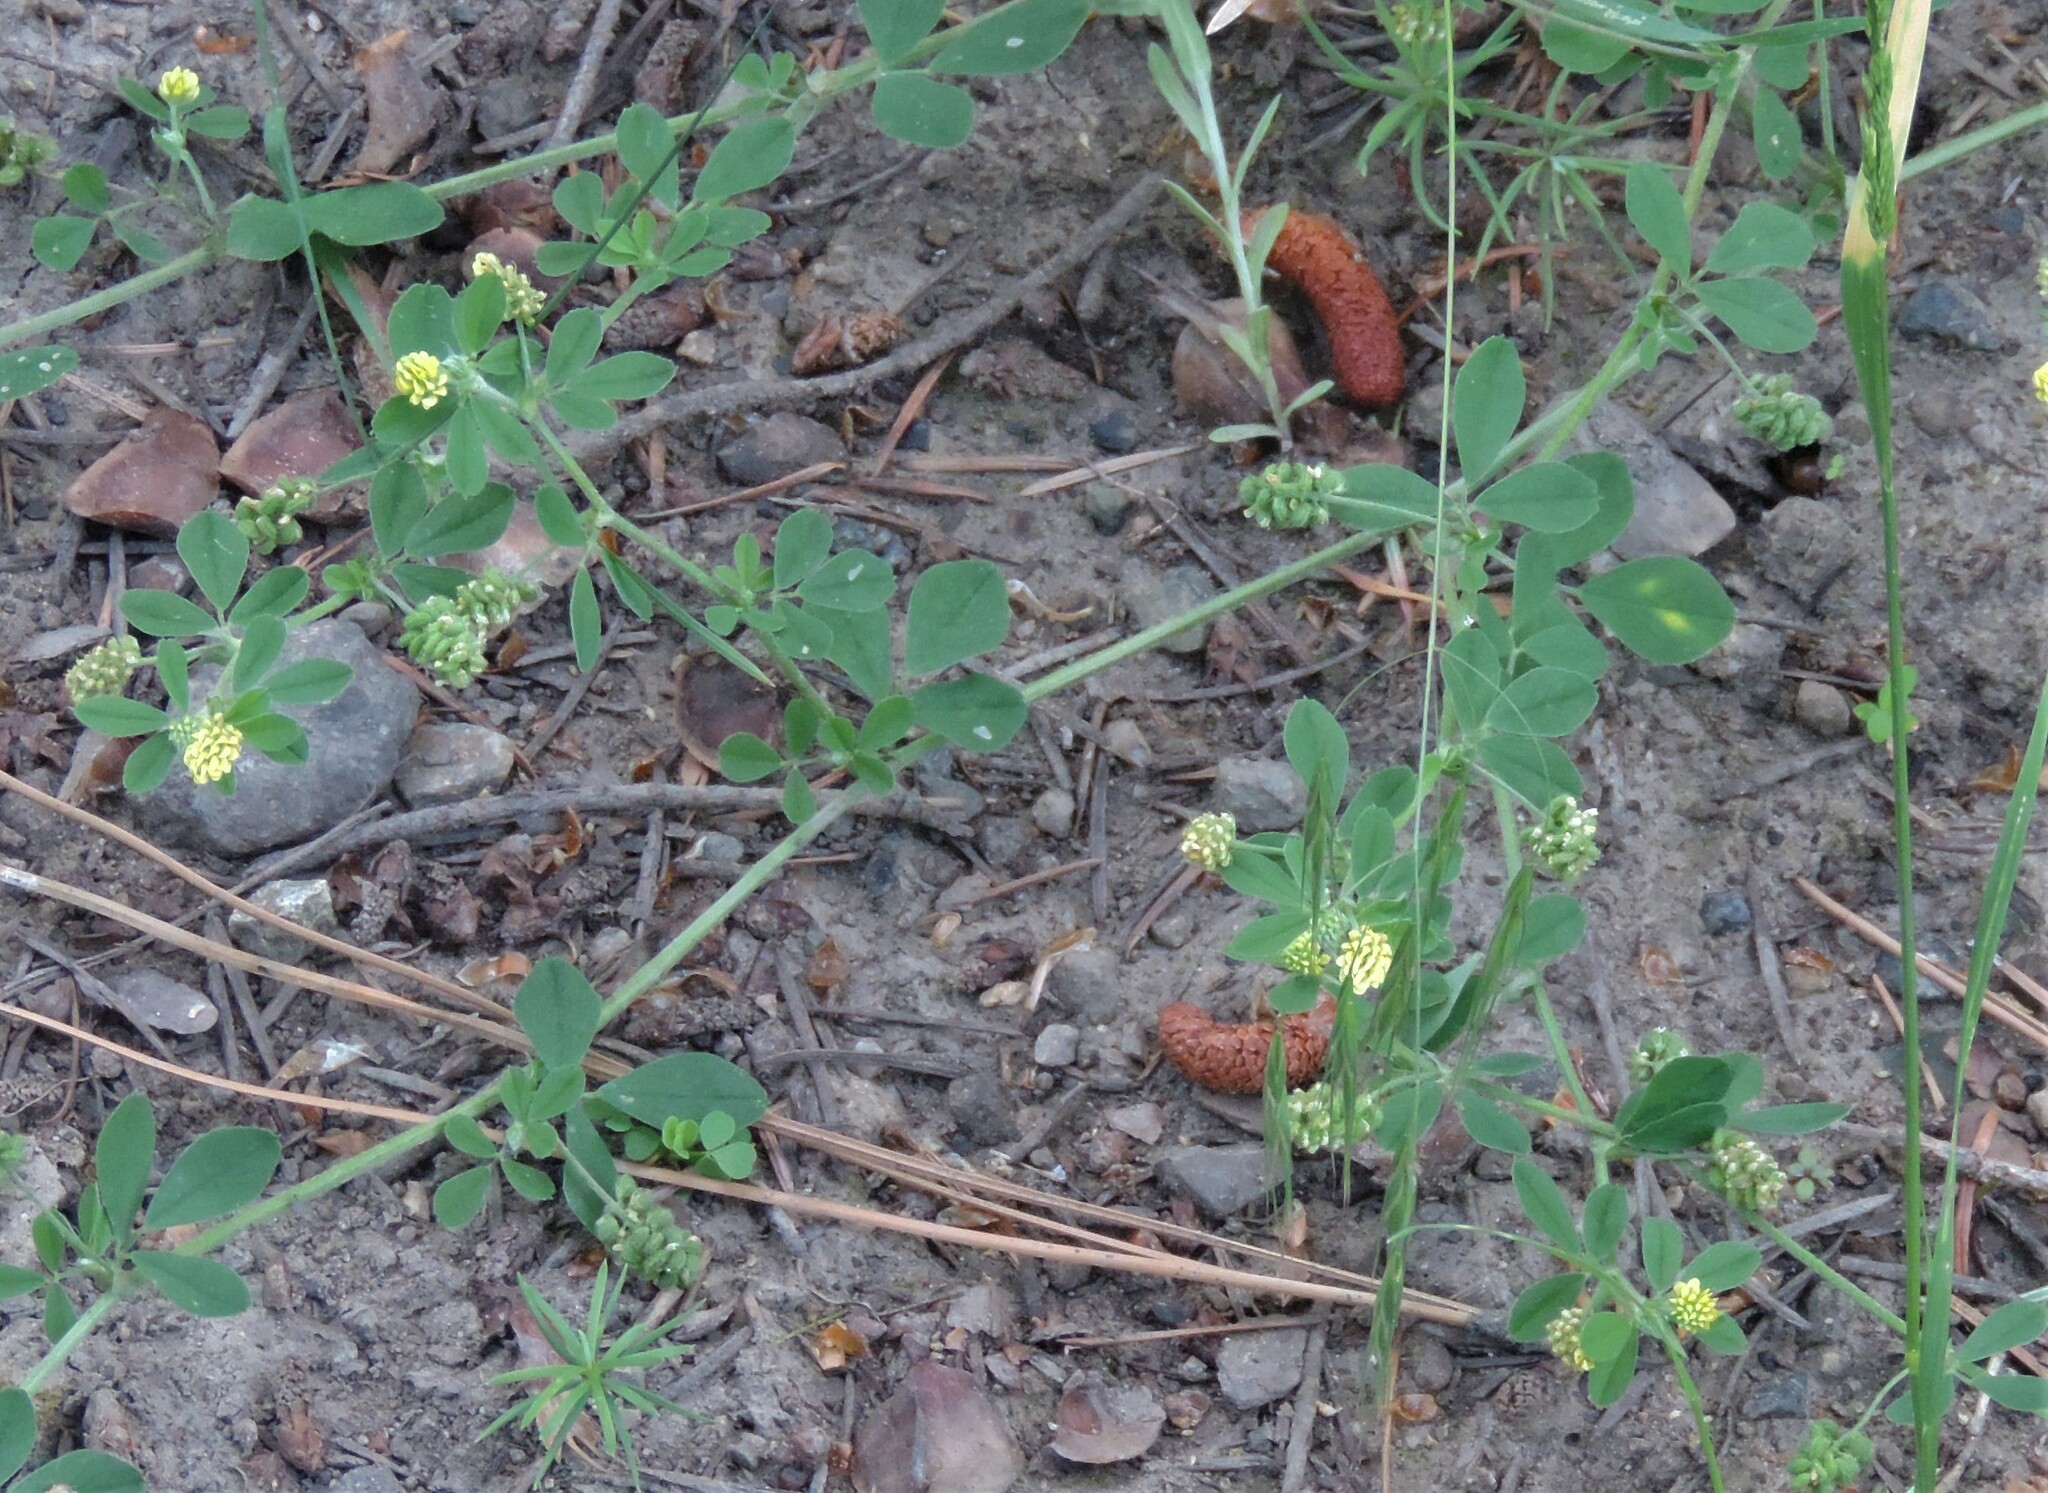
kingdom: Plantae
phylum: Tracheophyta
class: Magnoliopsida
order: Fabales
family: Fabaceae
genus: Medicago
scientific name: Medicago lupulina
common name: Black medick
